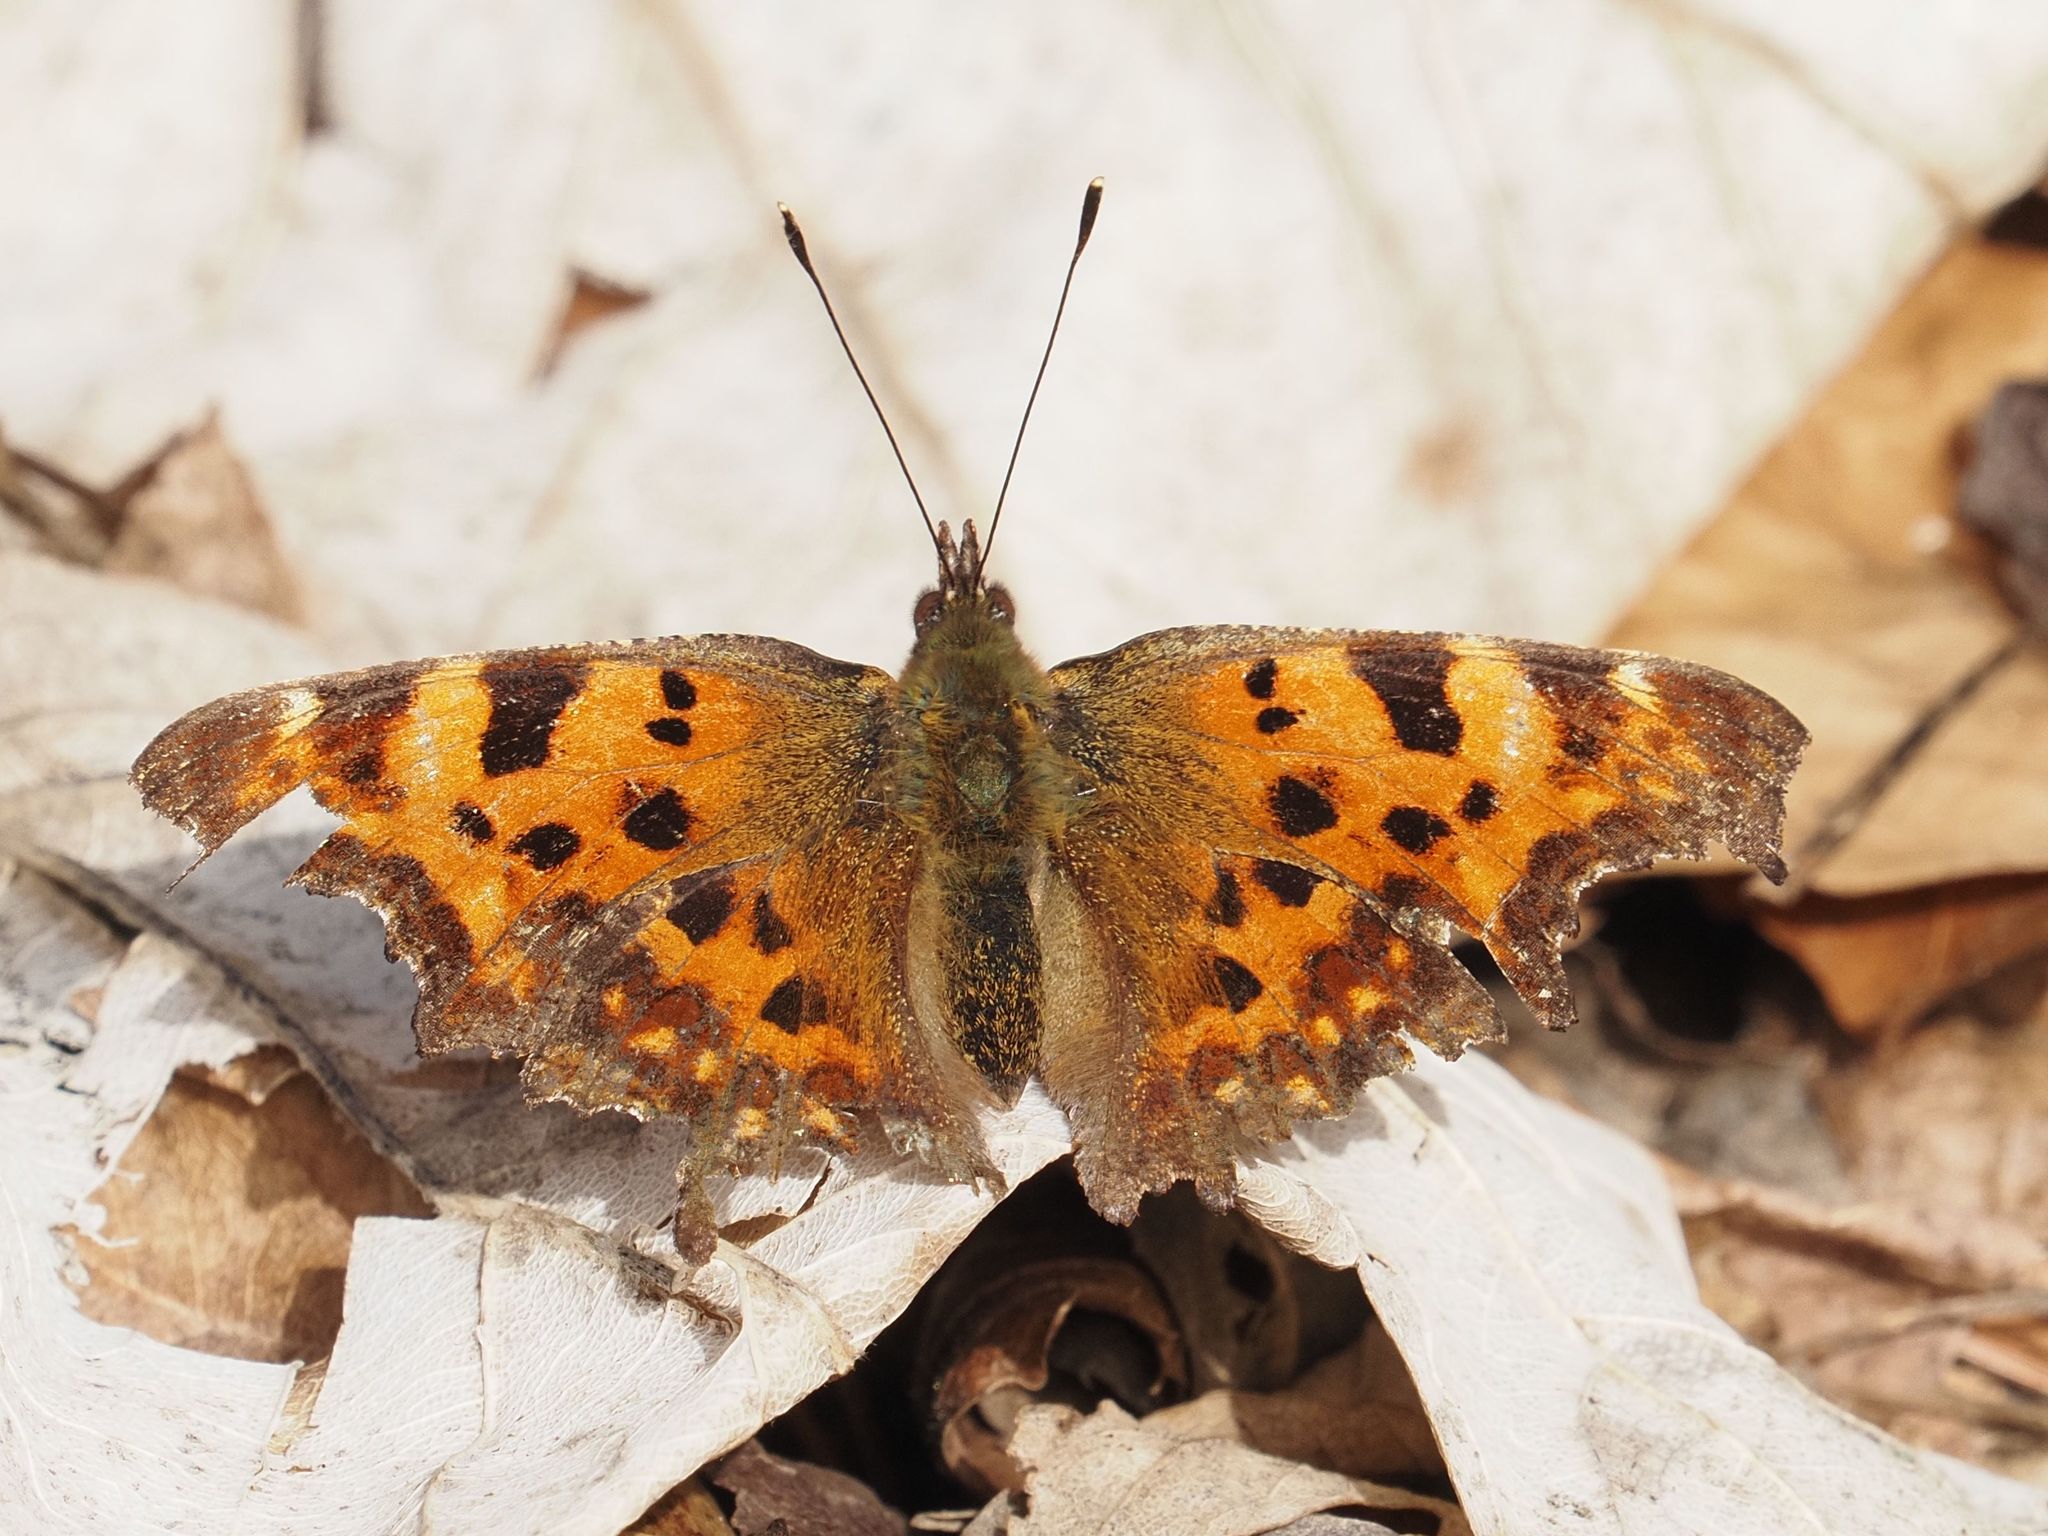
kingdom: Animalia
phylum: Arthropoda
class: Insecta
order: Lepidoptera
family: Nymphalidae
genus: Polygonia
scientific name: Polygonia c-album
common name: Comma
